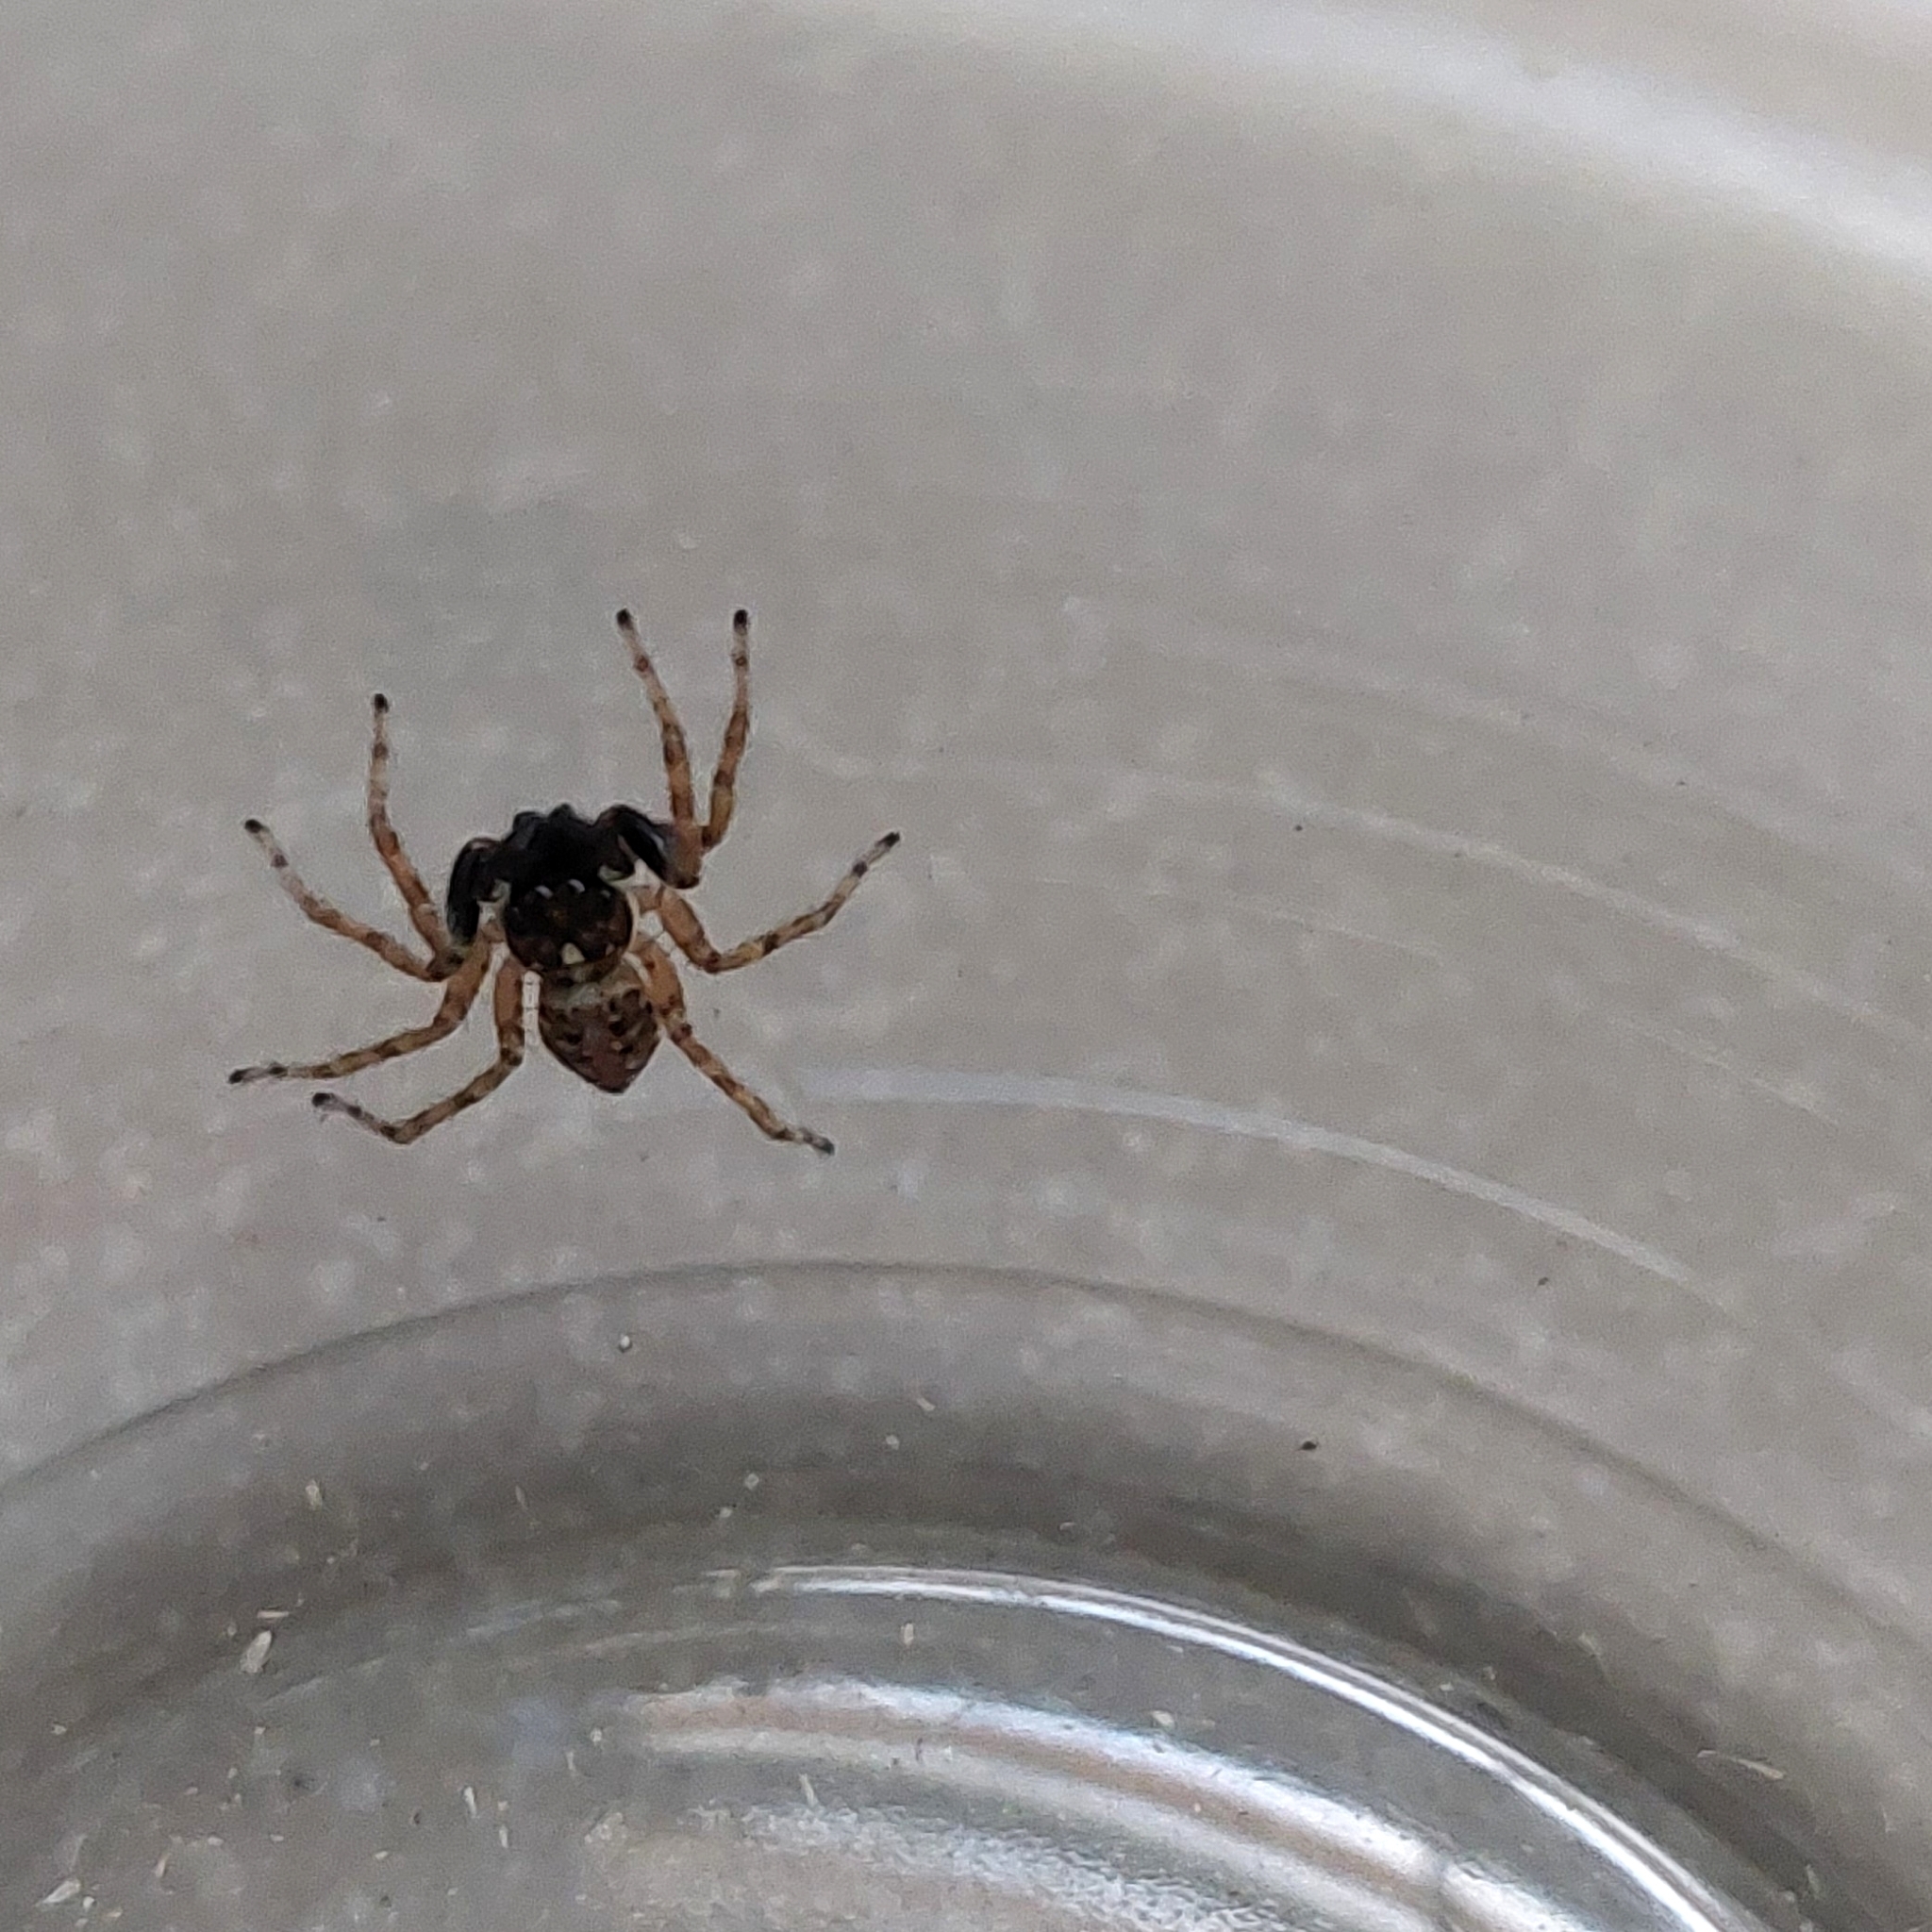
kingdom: Animalia
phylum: Arthropoda
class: Arachnida
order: Araneae
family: Salticidae
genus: Menemerus
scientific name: Menemerus semilimbatus
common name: Jumping spider
